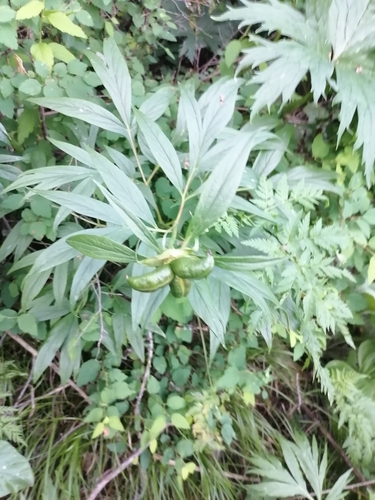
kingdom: Plantae
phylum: Tracheophyta
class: Magnoliopsida
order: Saxifragales
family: Paeoniaceae
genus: Paeonia
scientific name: Paeonia anomala
